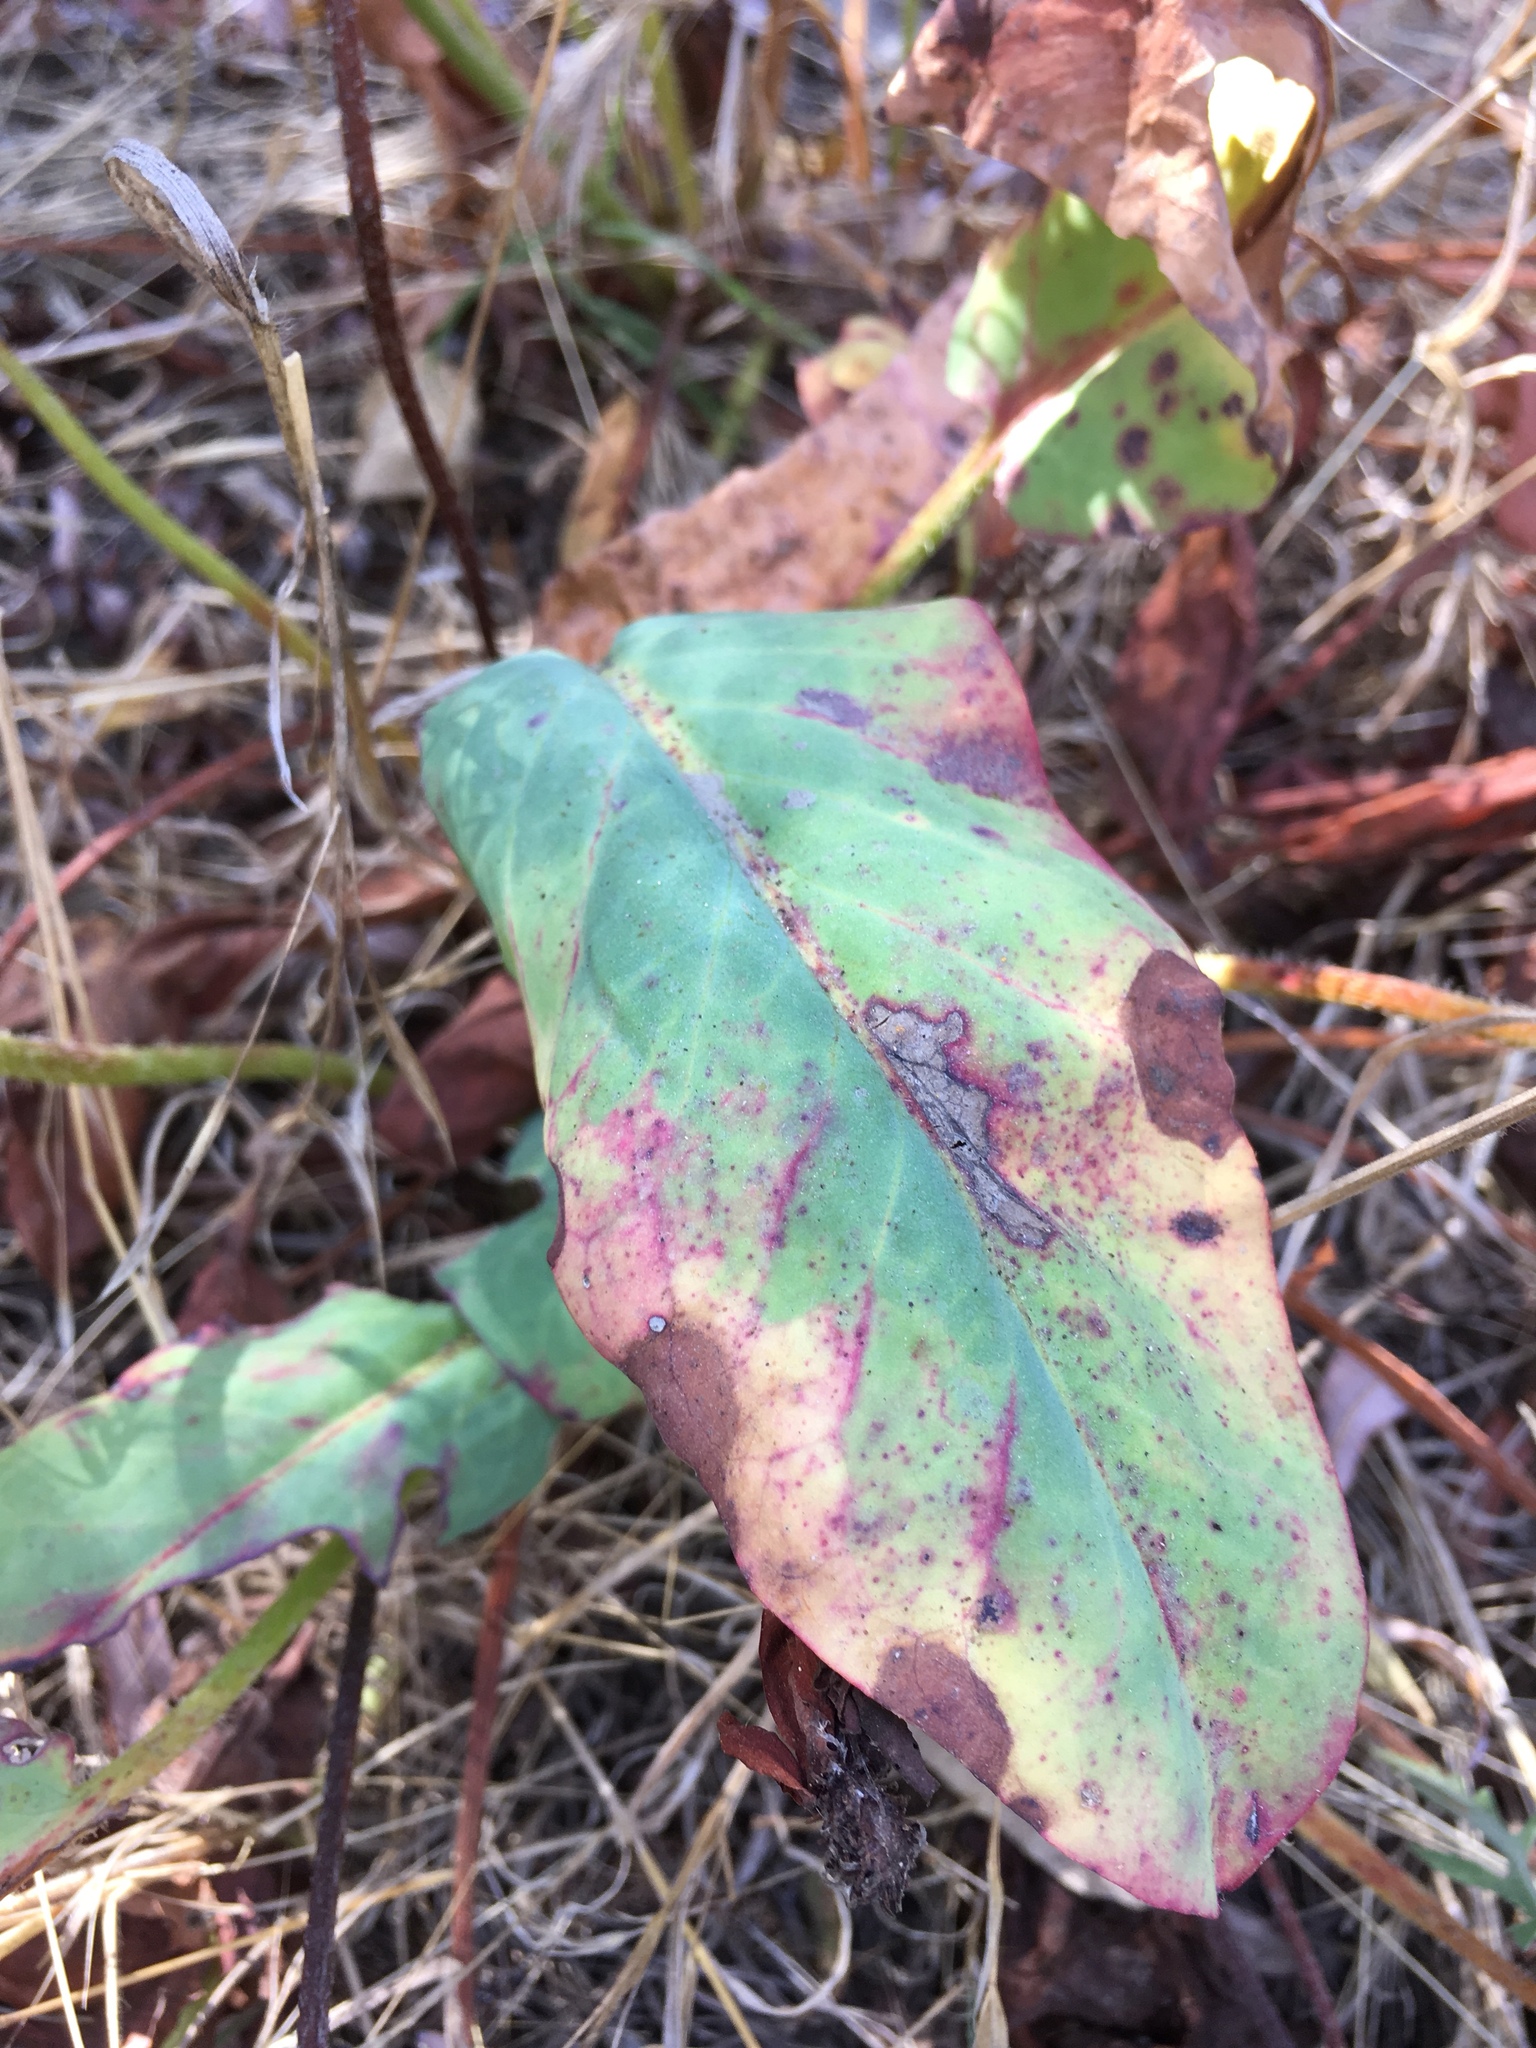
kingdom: Plantae
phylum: Tracheophyta
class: Magnoliopsida
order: Piperales
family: Saururaceae
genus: Anemopsis
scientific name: Anemopsis californica
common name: Apache-beads
